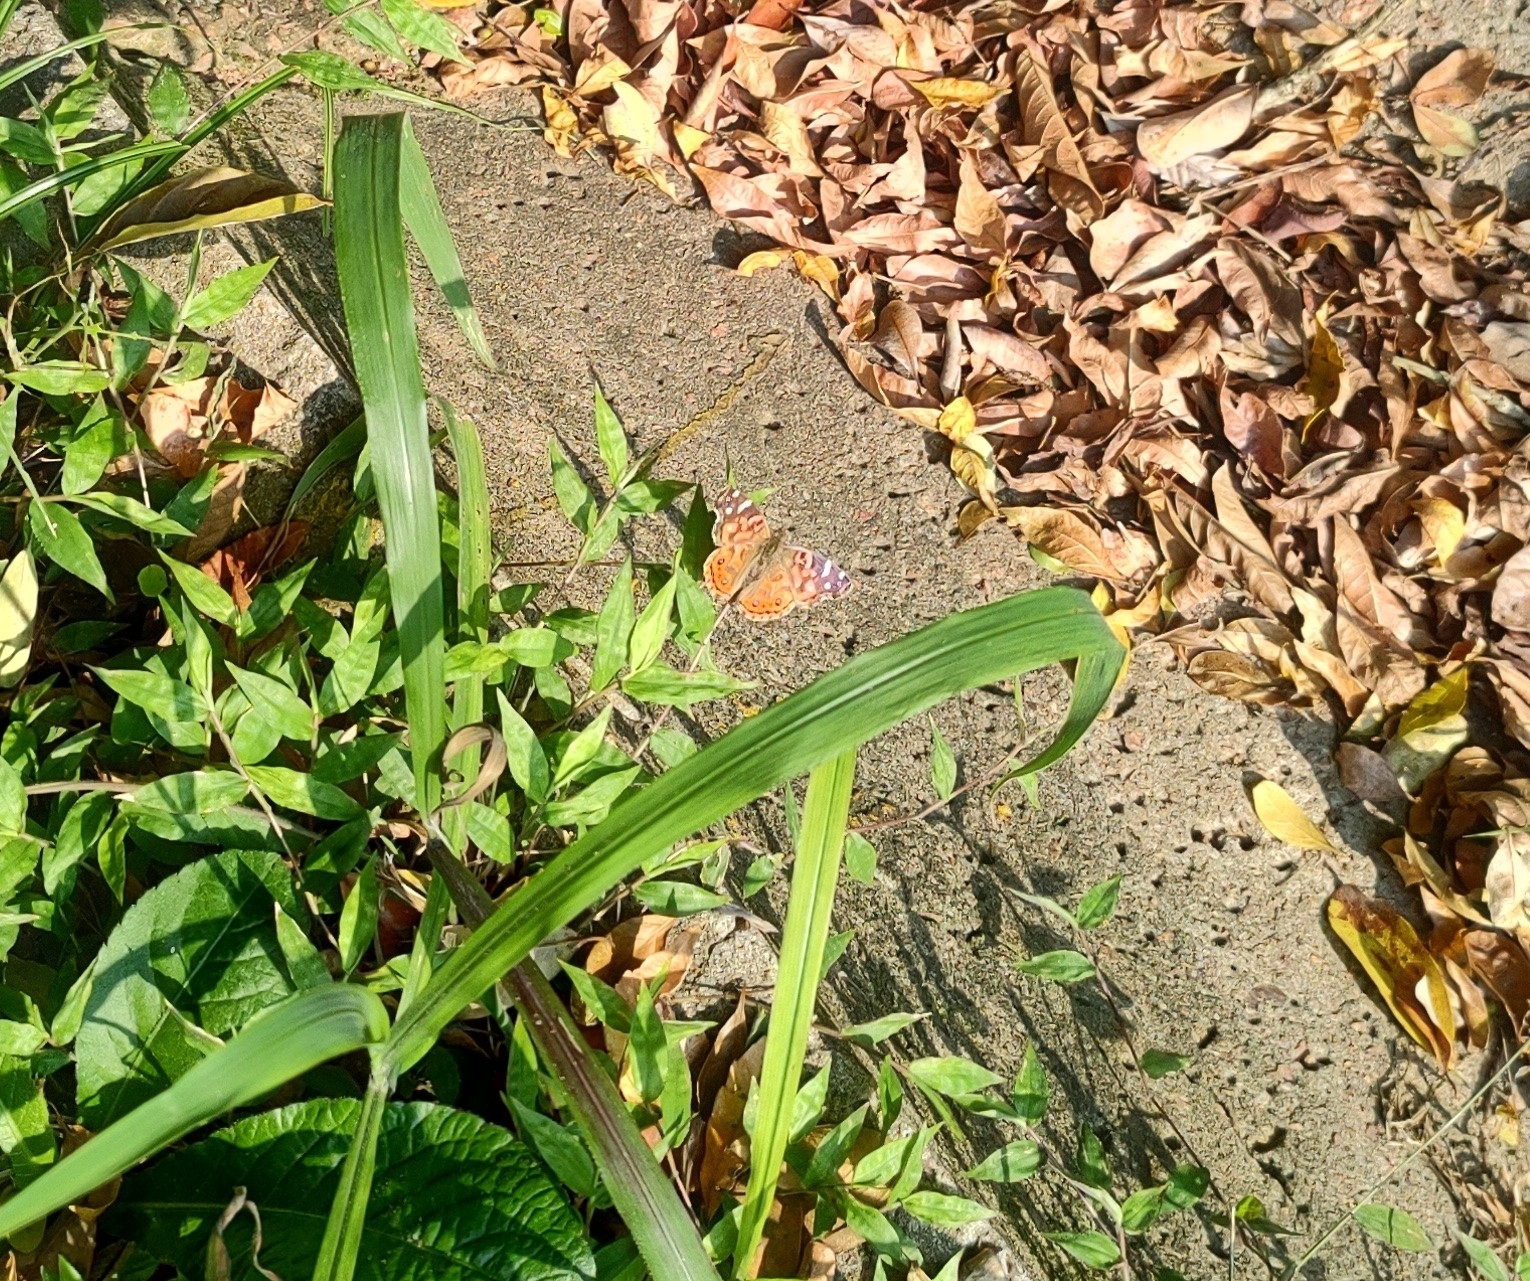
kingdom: Animalia
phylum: Arthropoda
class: Insecta
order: Lepidoptera
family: Nymphalidae
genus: Vanessa
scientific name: Vanessa braziliensis
